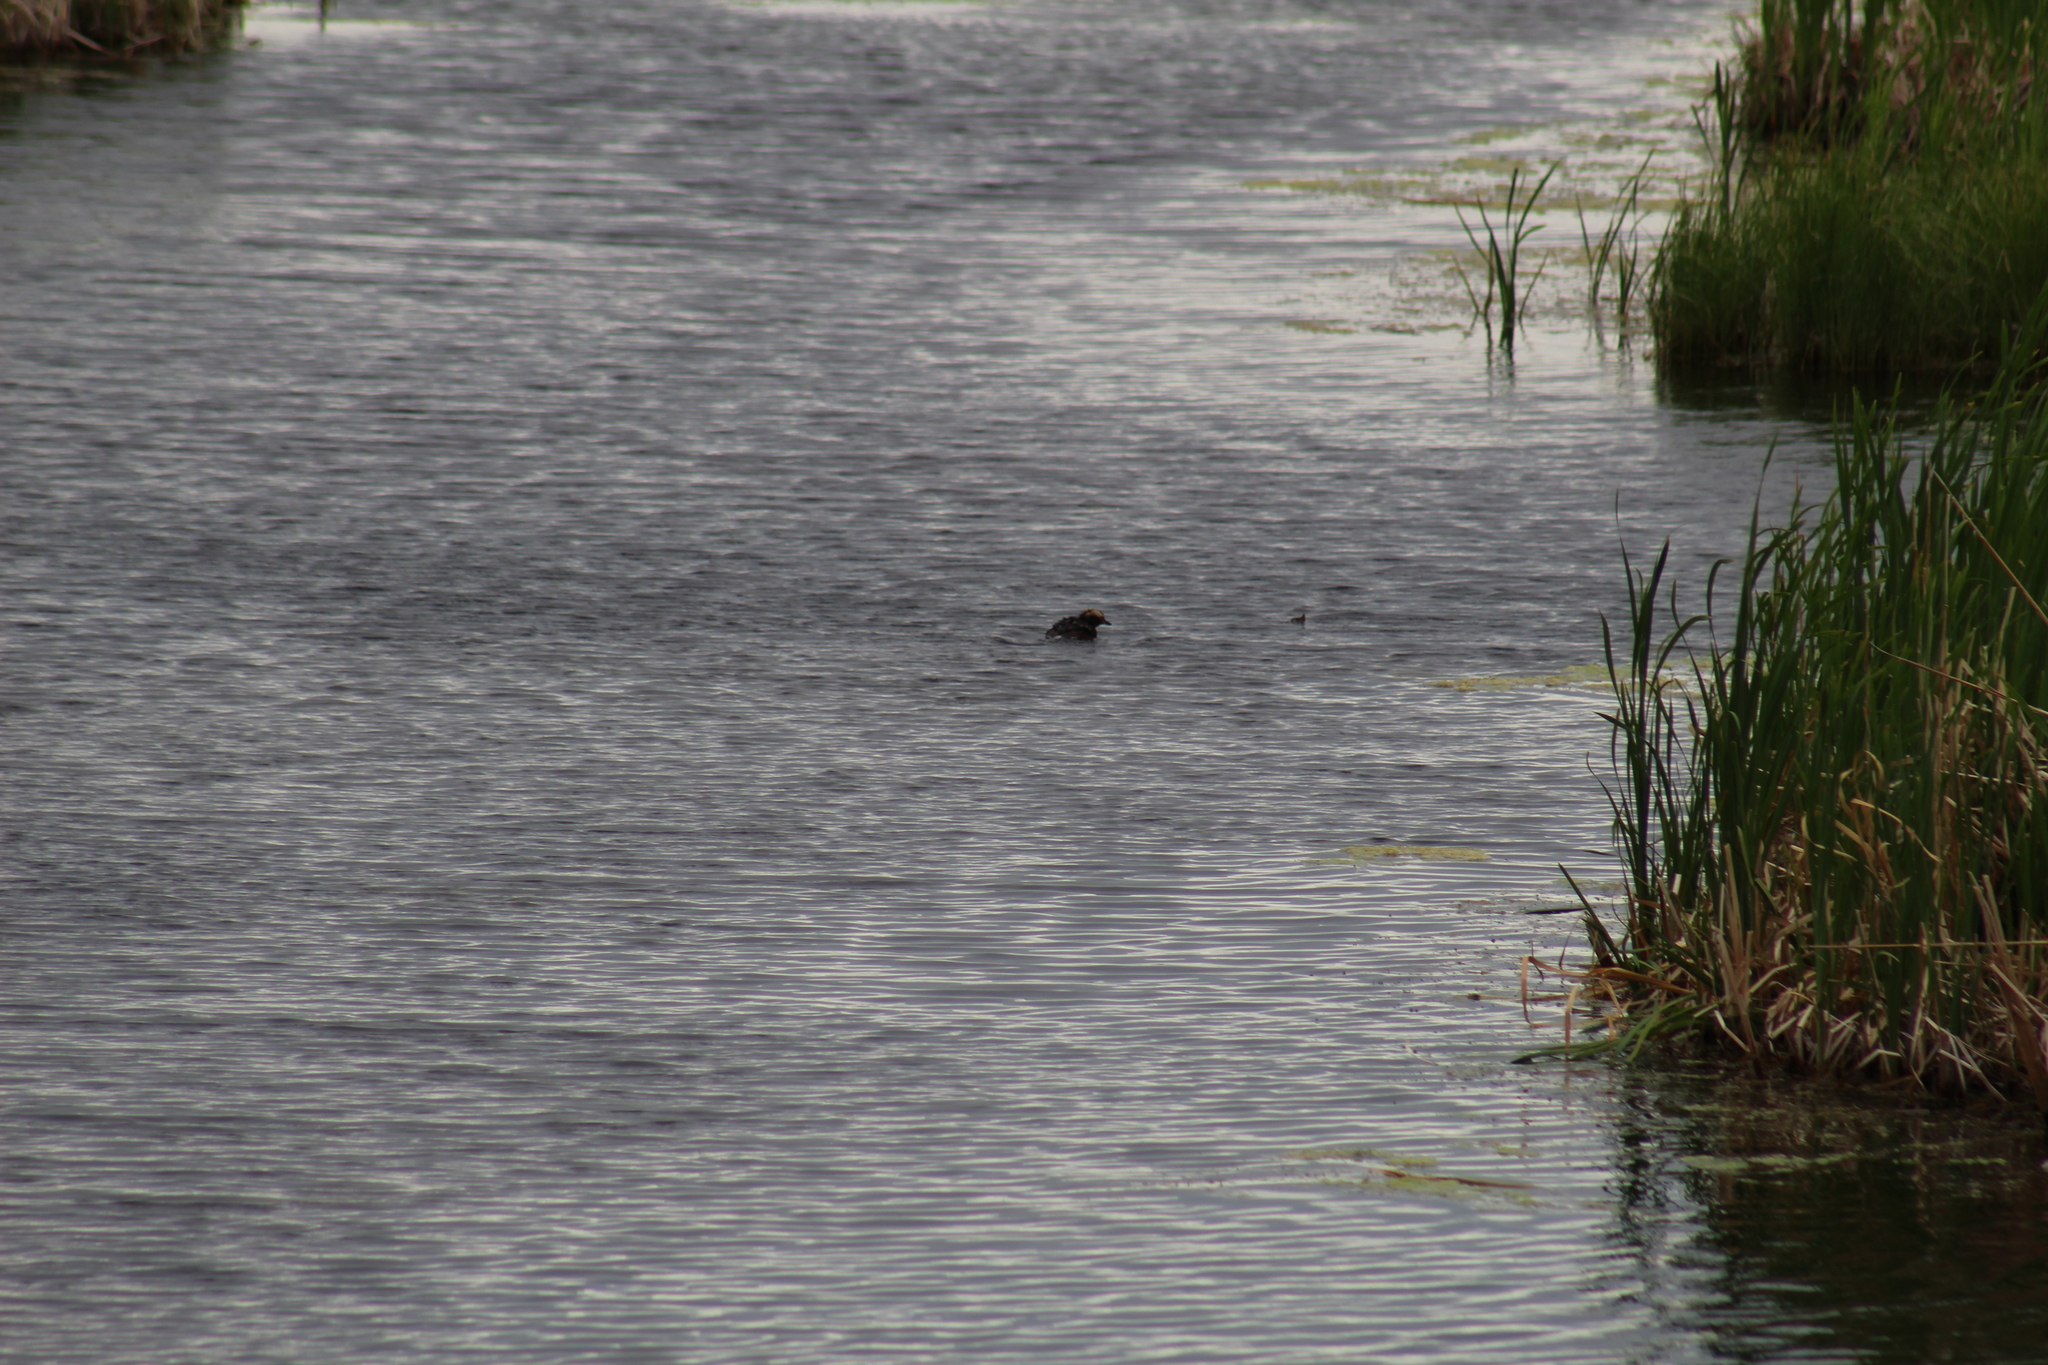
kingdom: Animalia
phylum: Chordata
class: Aves
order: Podicipediformes
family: Podicipedidae
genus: Podiceps
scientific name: Podiceps auritus
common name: Horned grebe
